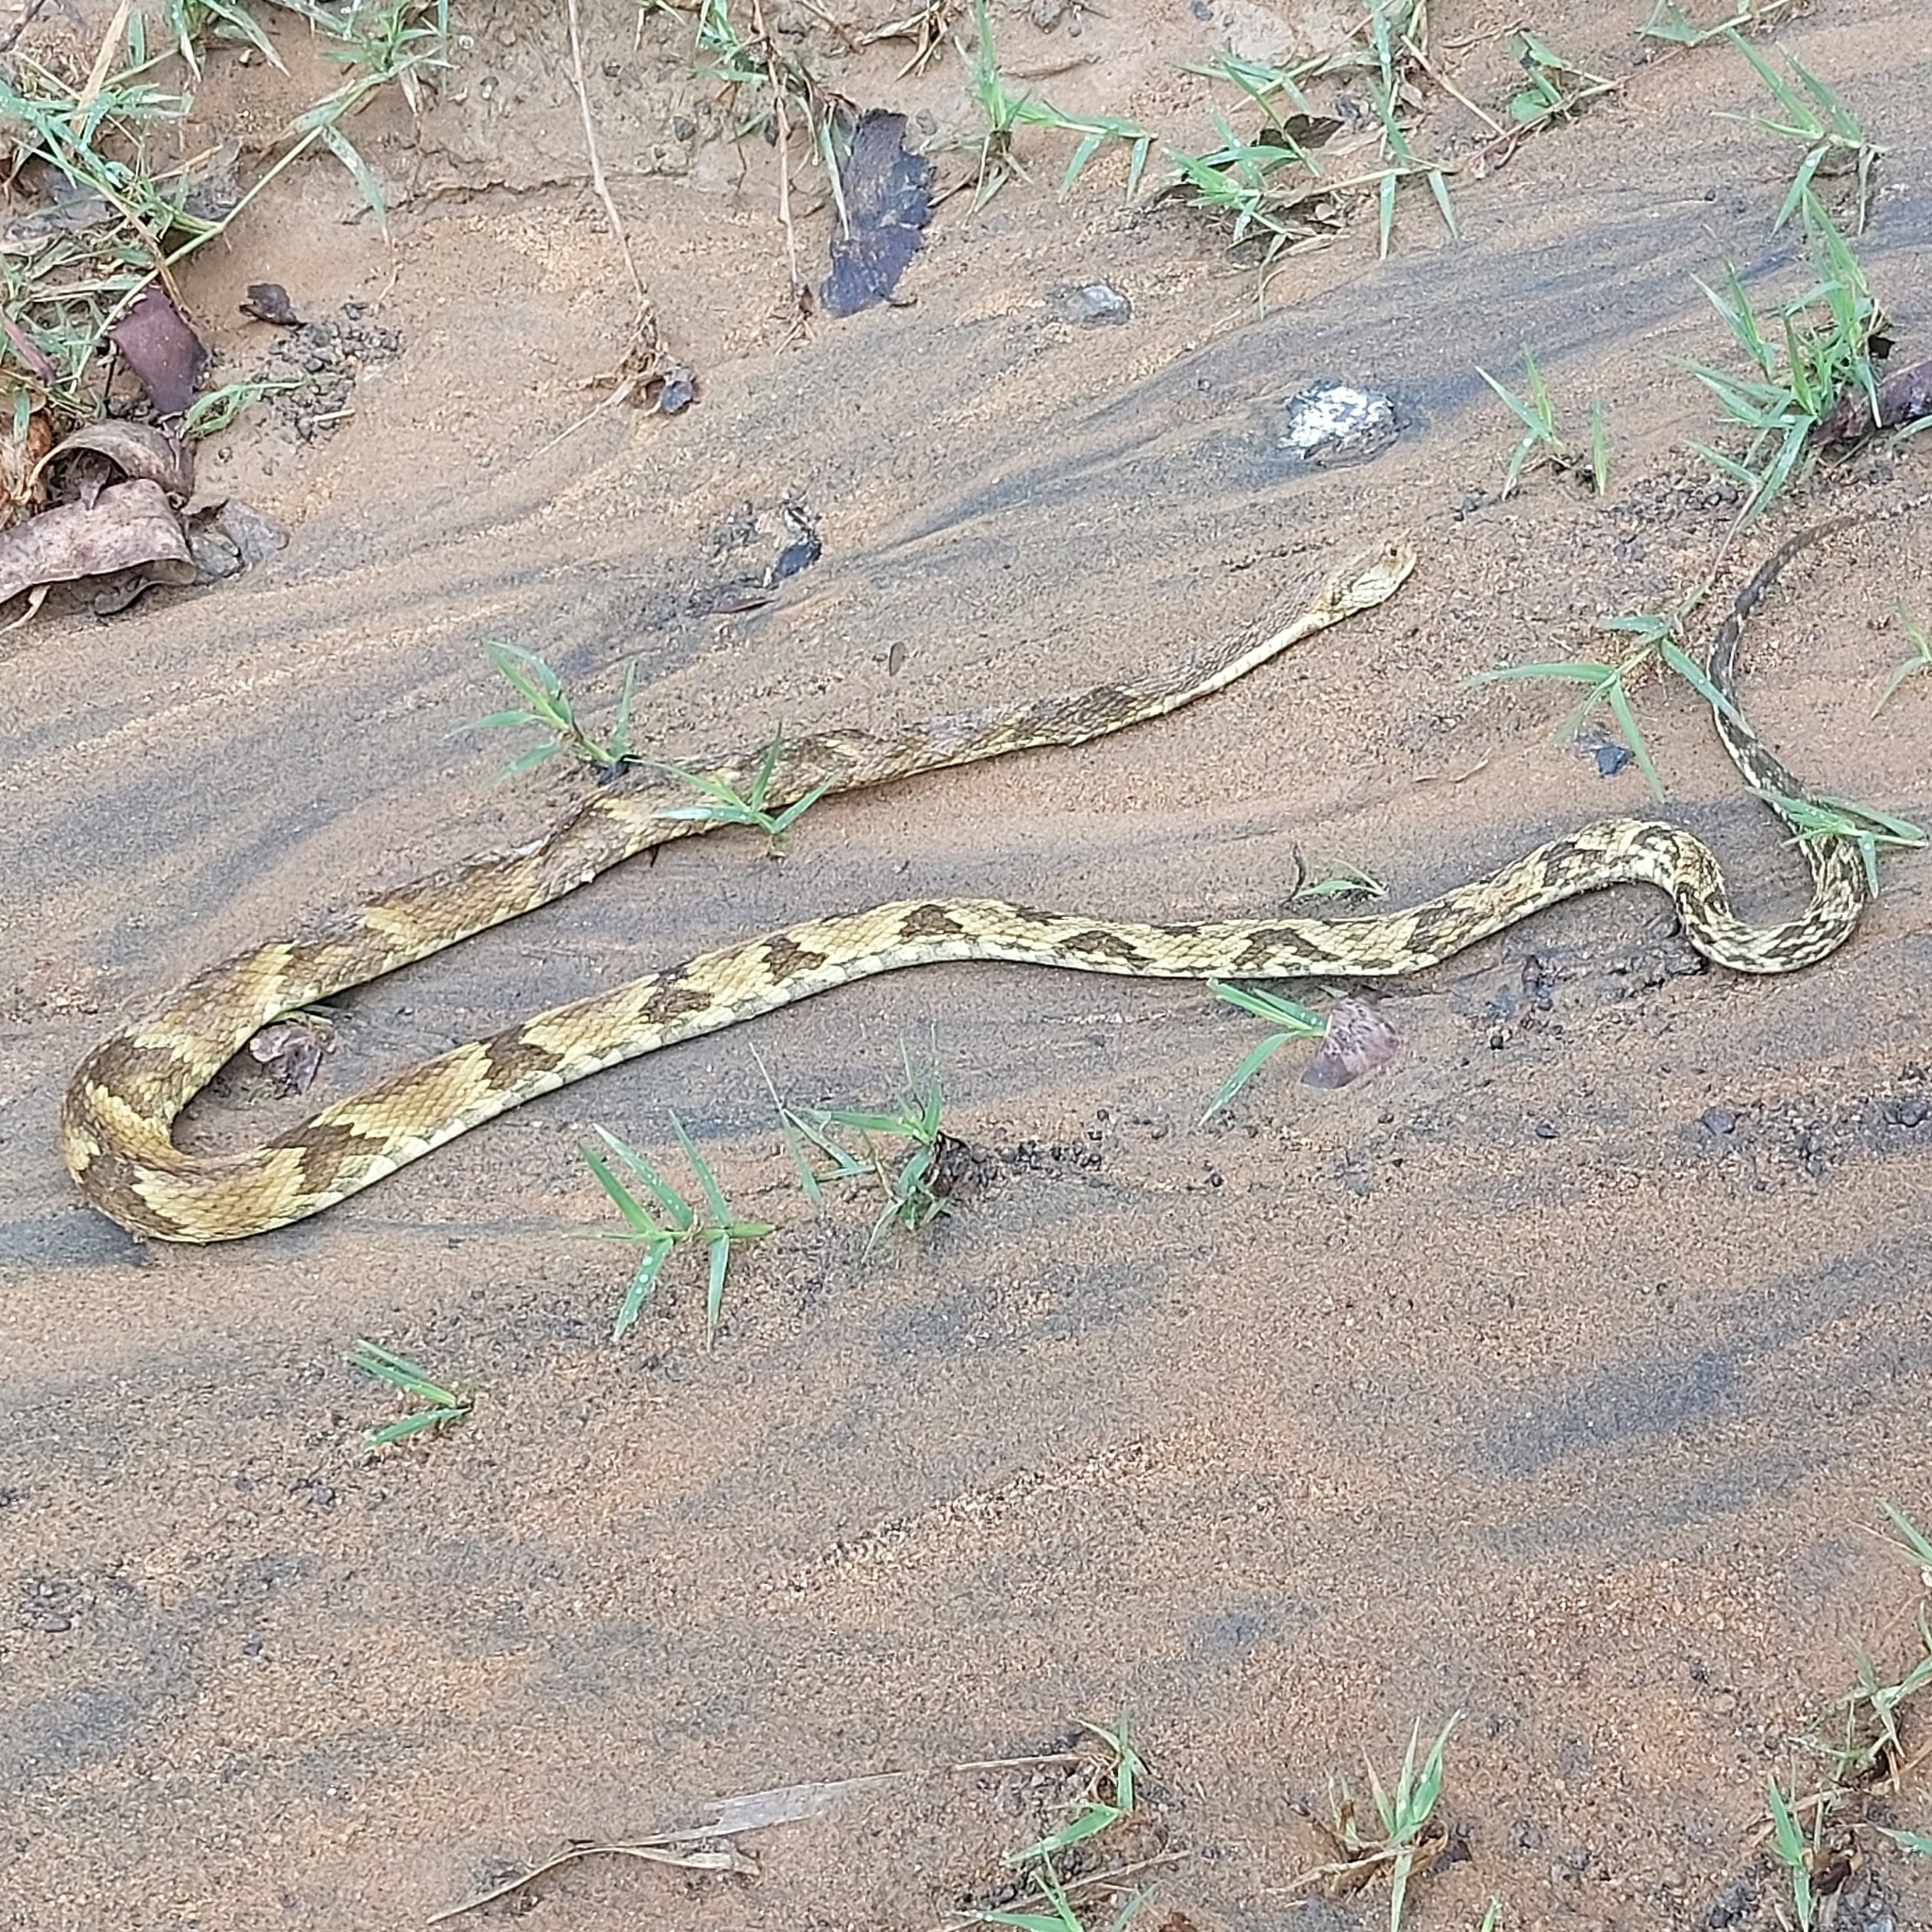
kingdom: Animalia
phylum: Chordata
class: Squamata
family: Viperidae
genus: Bothrops
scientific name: Bothrops jararaca
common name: Jararaca
